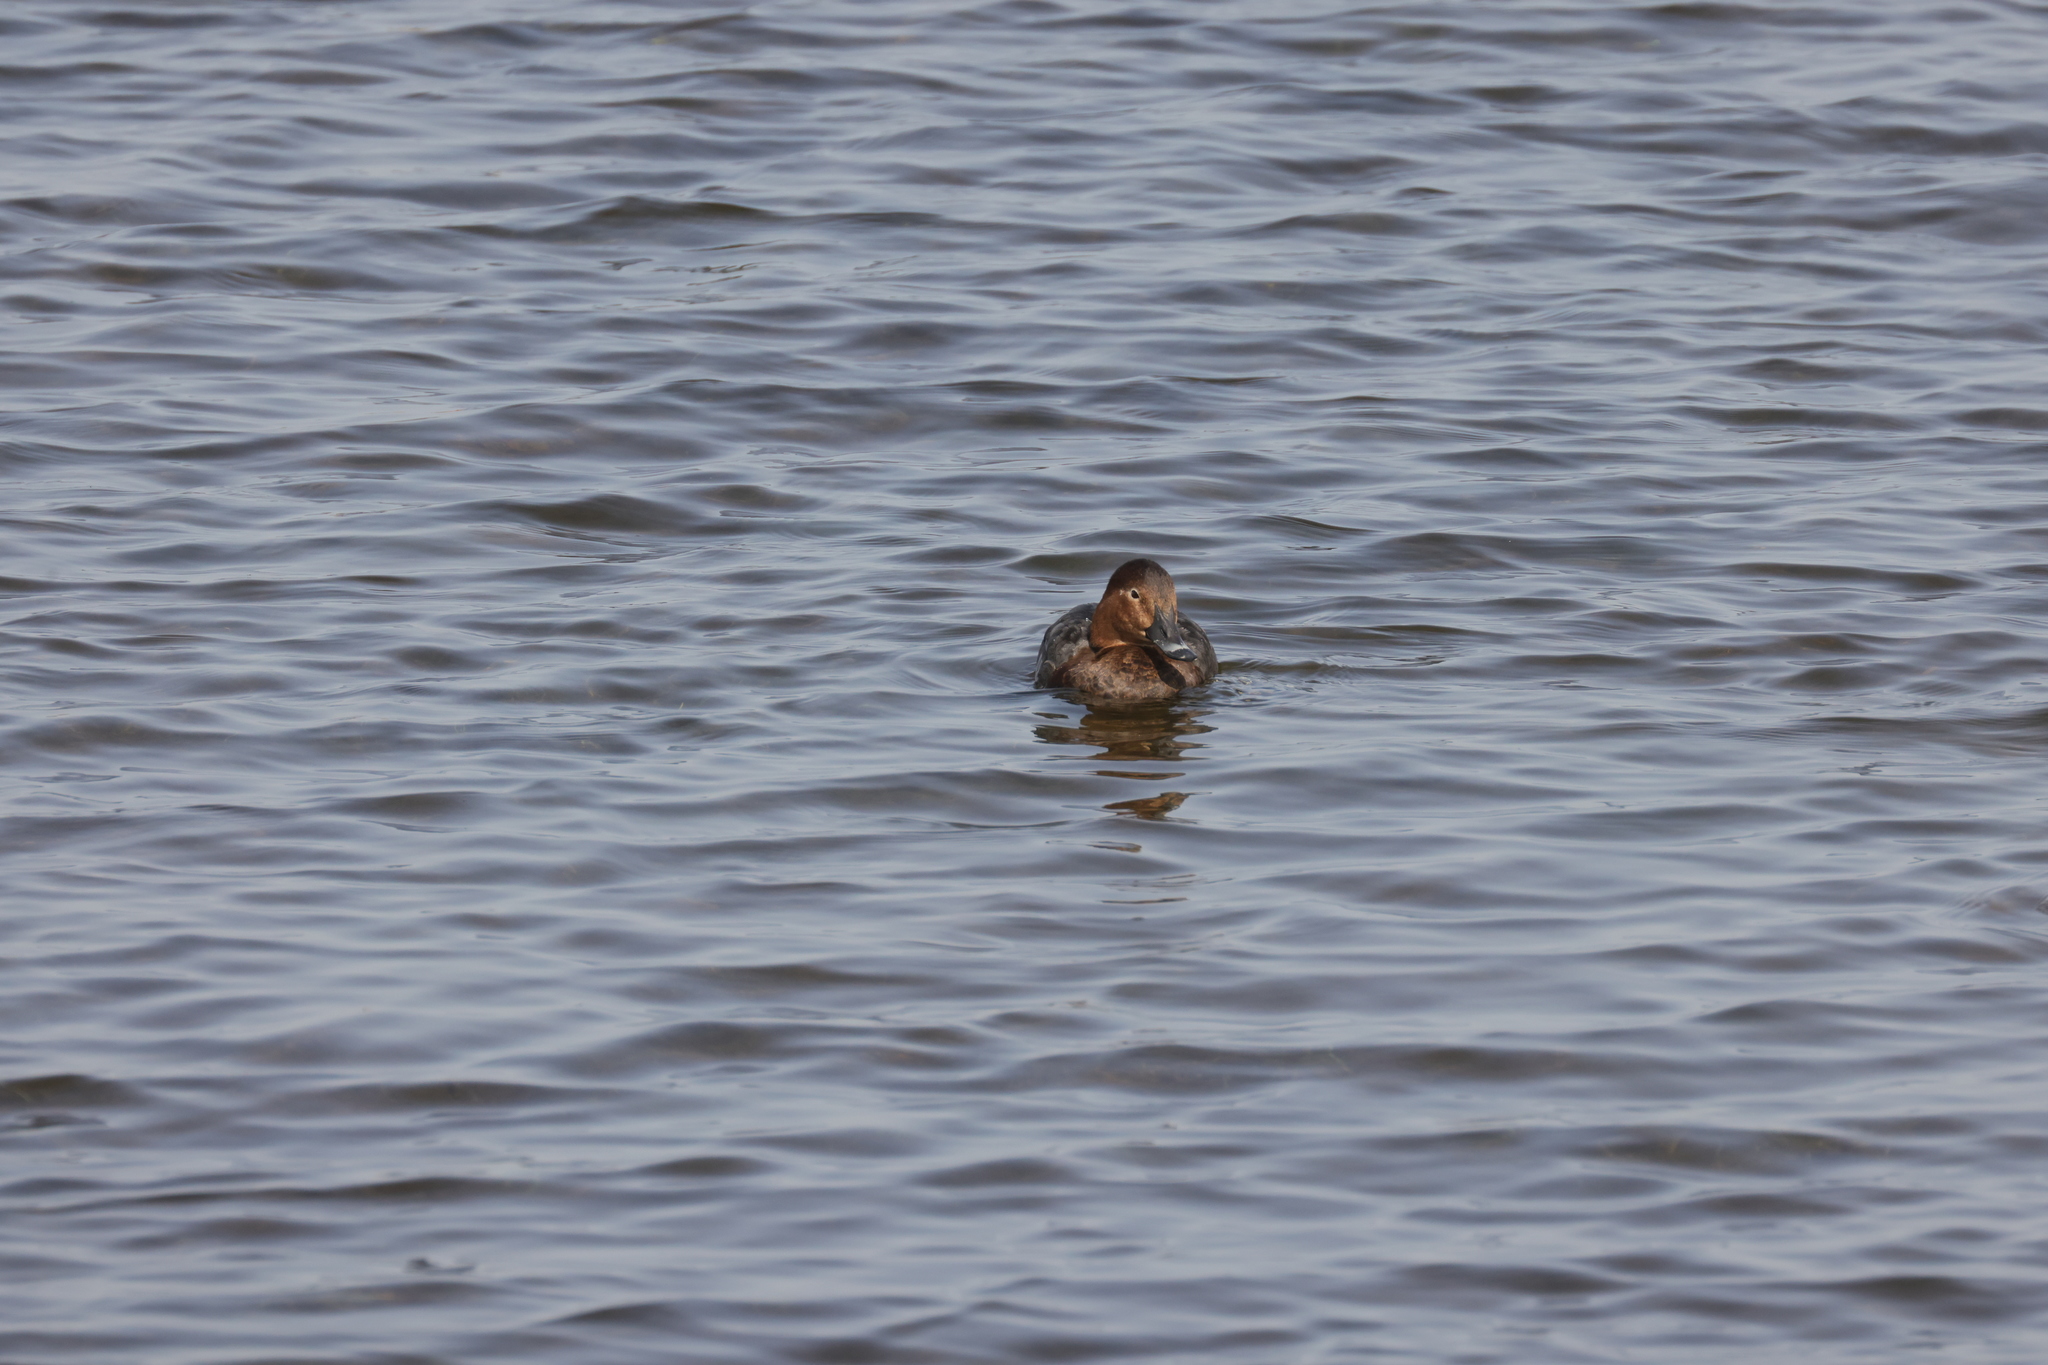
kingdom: Animalia
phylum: Chordata
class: Aves
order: Anseriformes
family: Anatidae
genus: Aythya
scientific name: Aythya ferina
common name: Common pochard
